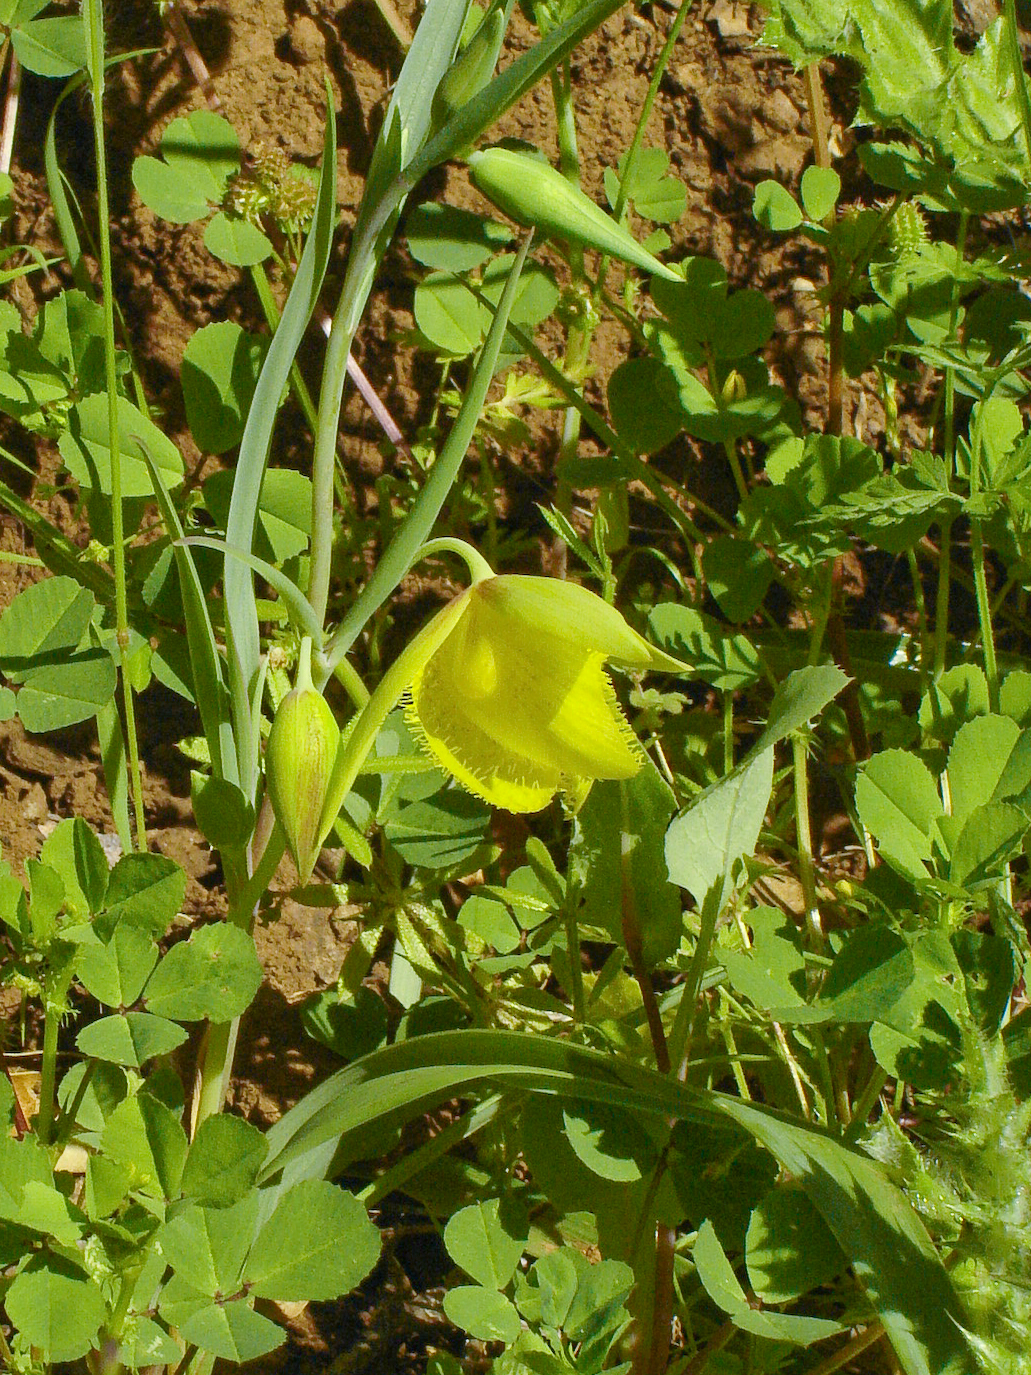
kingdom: Plantae
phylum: Tracheophyta
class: Liliopsida
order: Liliales
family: Liliaceae
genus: Calochortus
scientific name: Calochortus pulchellus
